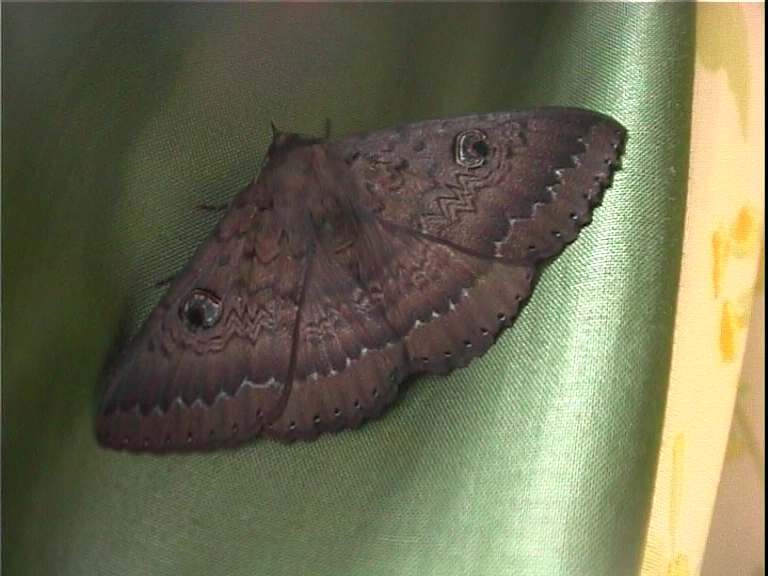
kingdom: Animalia
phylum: Arthropoda
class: Insecta
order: Lepidoptera
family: Erebidae
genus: Dasypodia
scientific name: Dasypodia cymatodes
